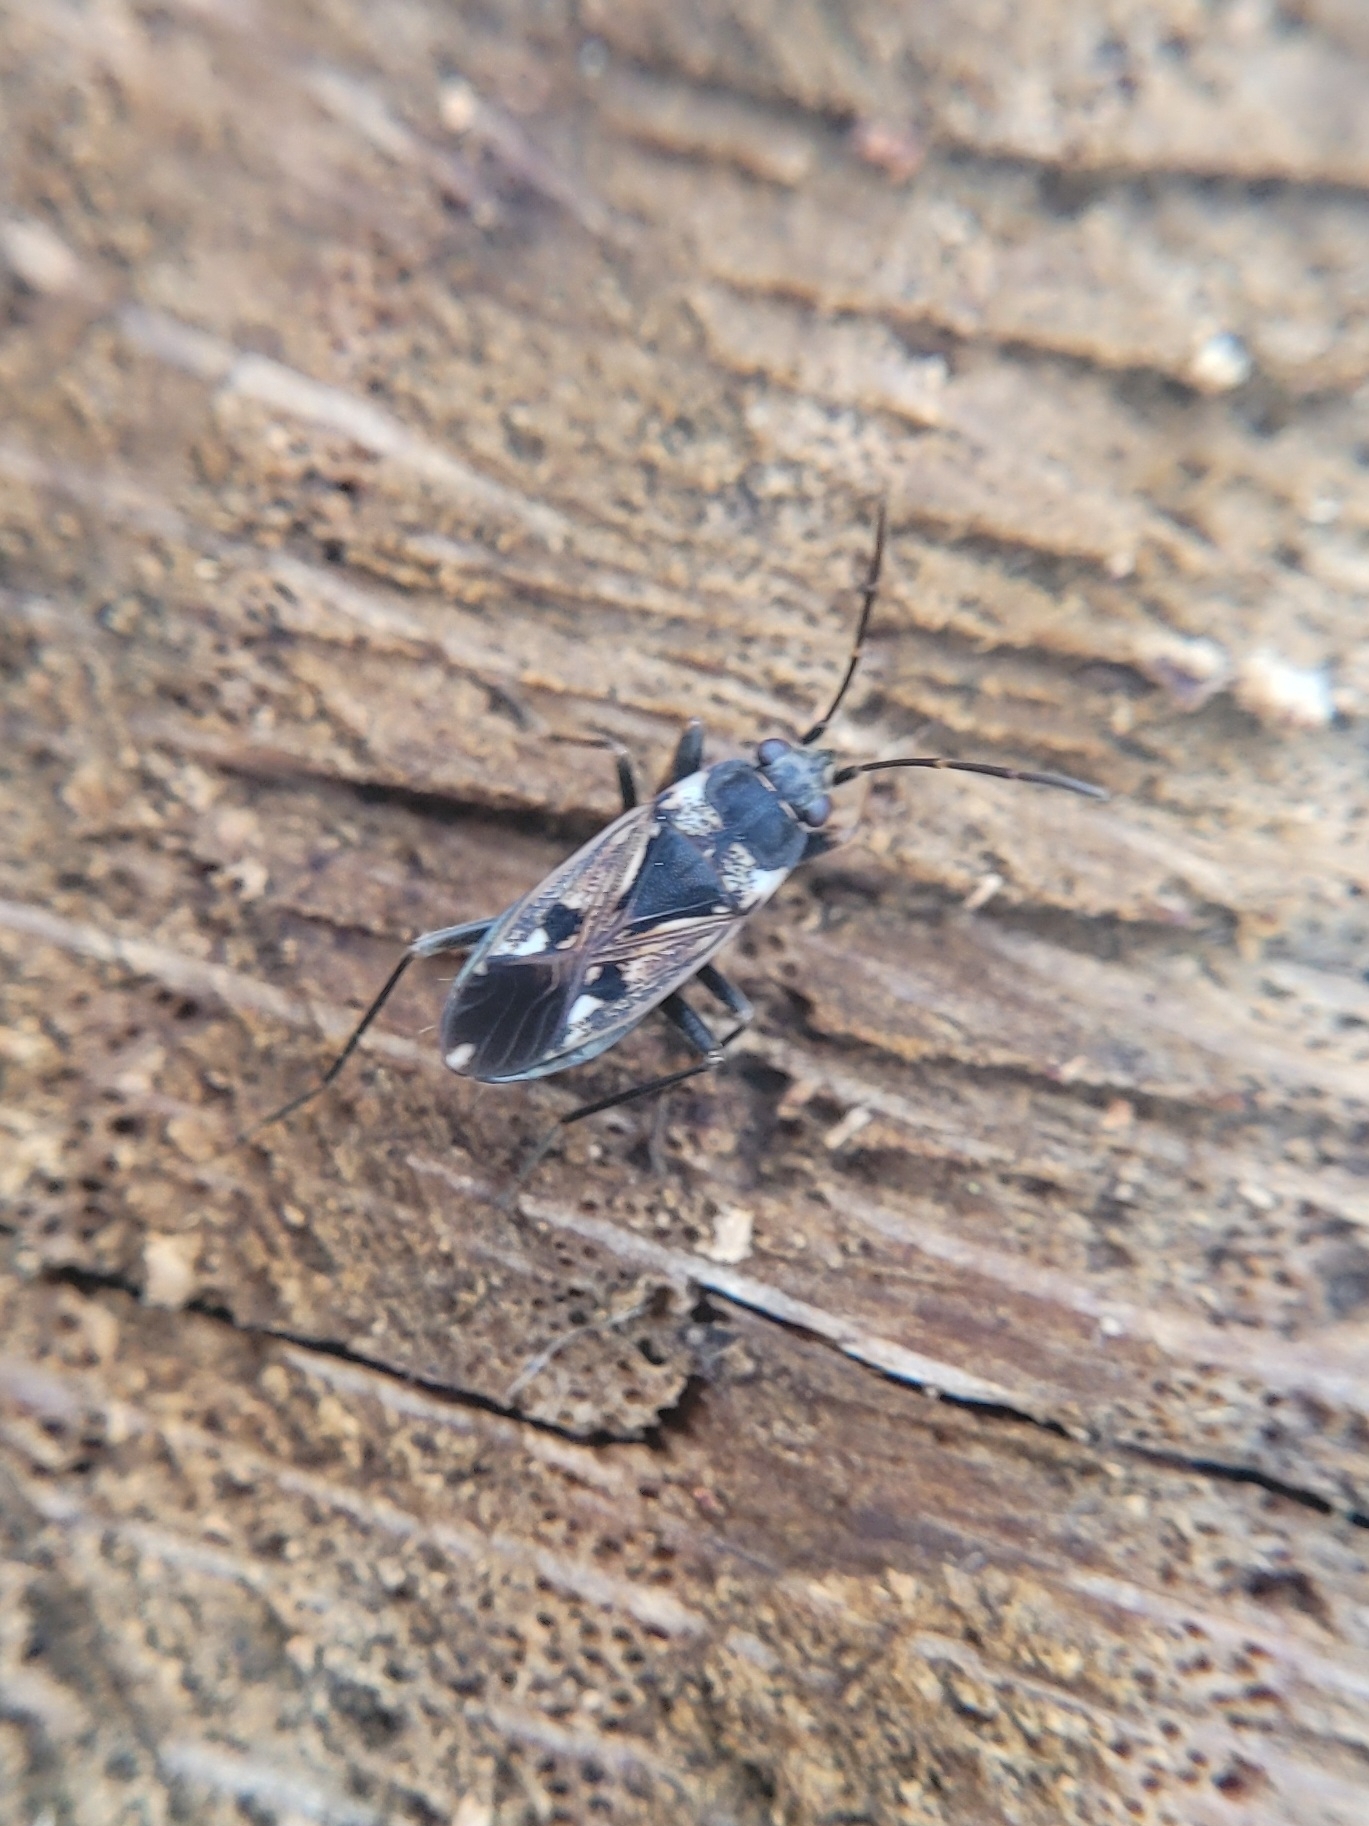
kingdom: Animalia
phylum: Arthropoda
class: Insecta
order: Hemiptera
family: Rhyparochromidae
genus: Rhyparochromus
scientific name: Rhyparochromus vulgaris
